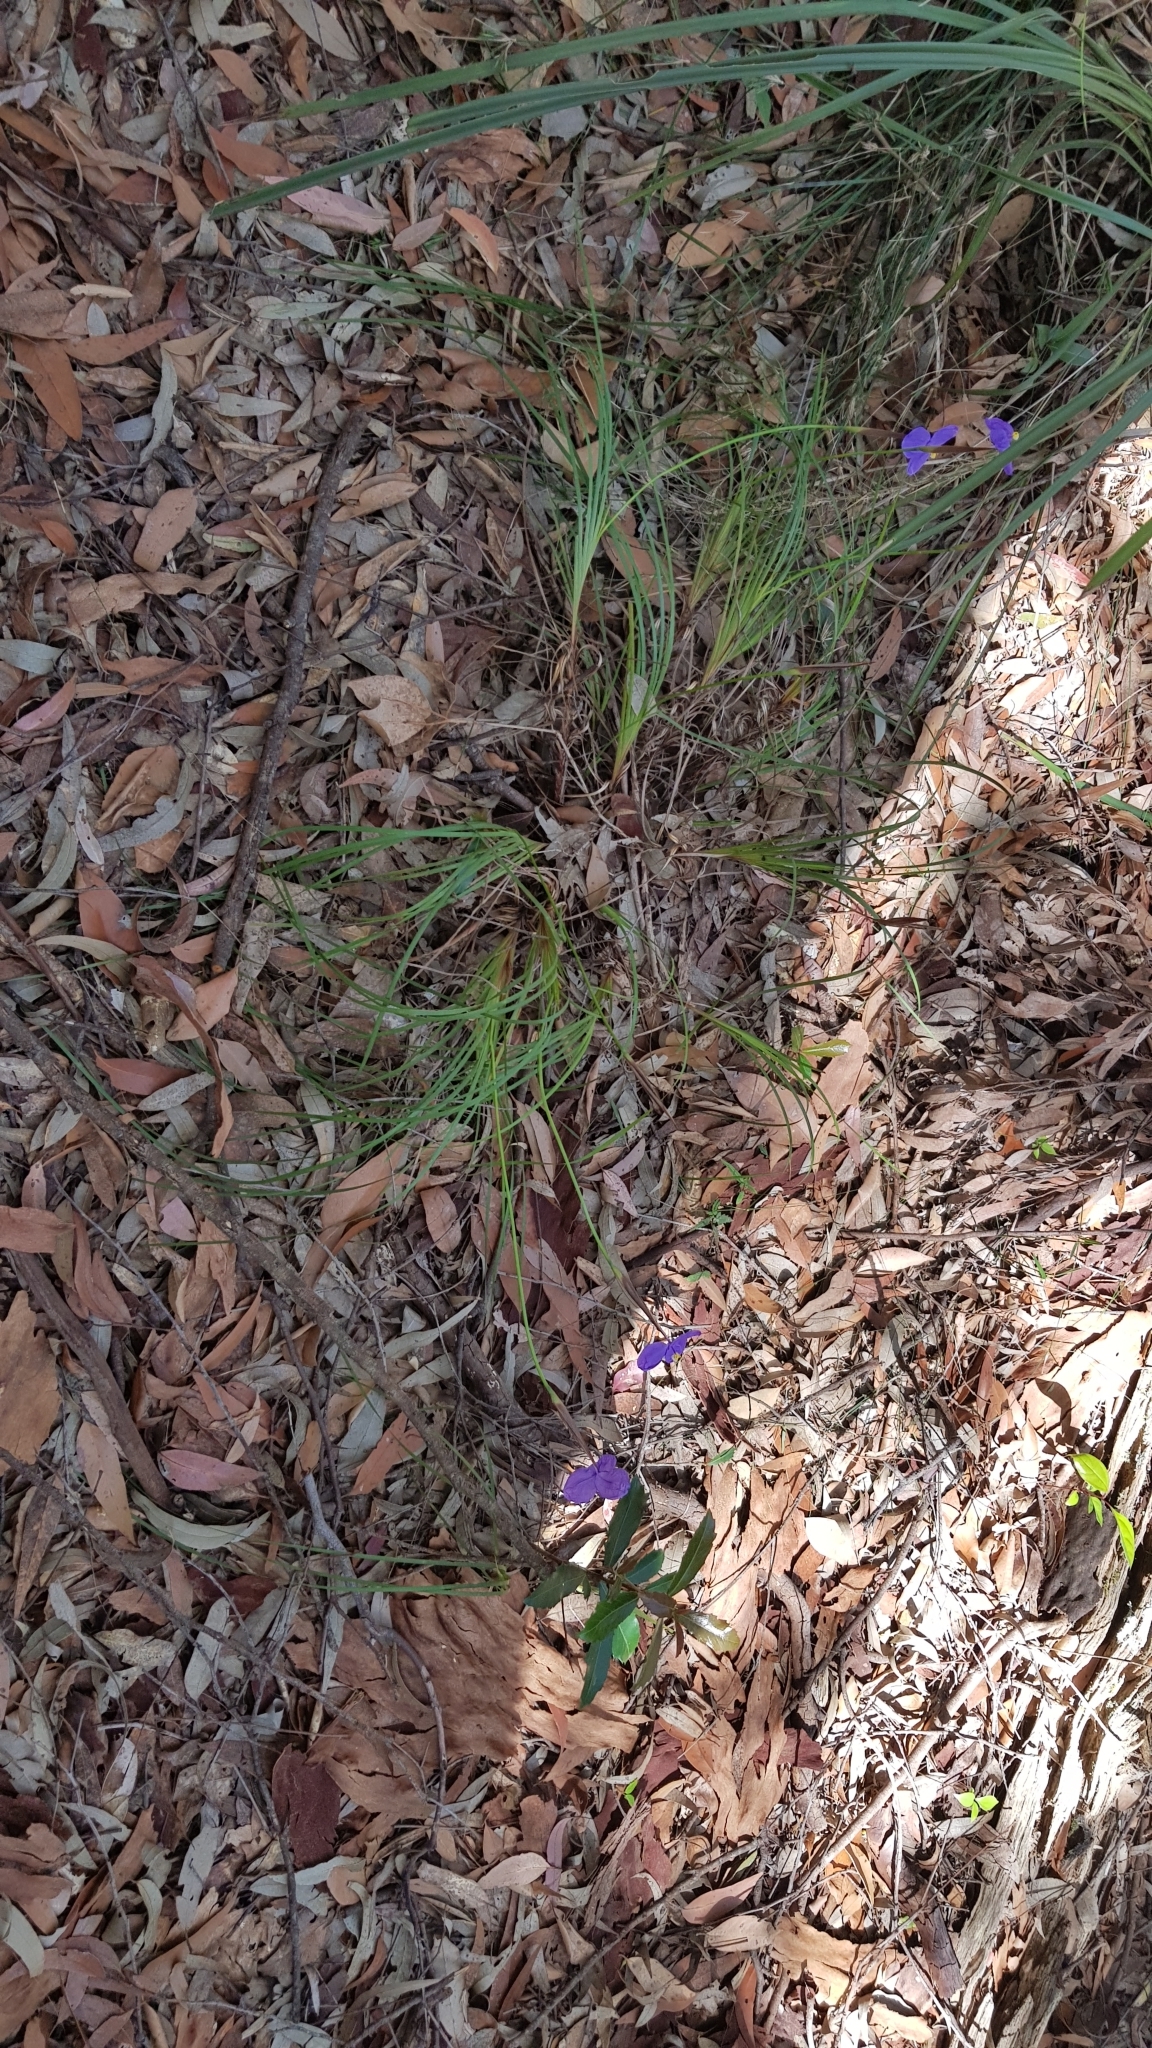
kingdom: Plantae
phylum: Tracheophyta
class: Liliopsida
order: Asparagales
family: Iridaceae
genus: Patersonia
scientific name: Patersonia glabrata
